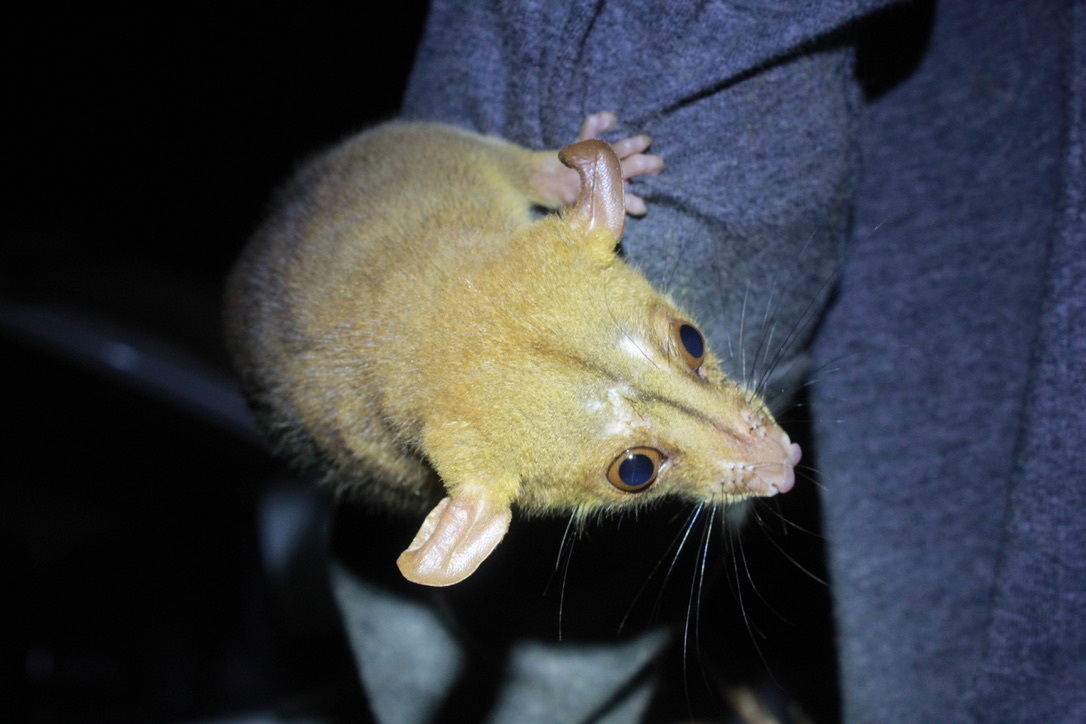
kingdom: Animalia
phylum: Chordata
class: Mammalia
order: Didelphimorphia
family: Didelphidae
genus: Caluromys
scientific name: Caluromys philander
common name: Bare-tailed woolly opossum
